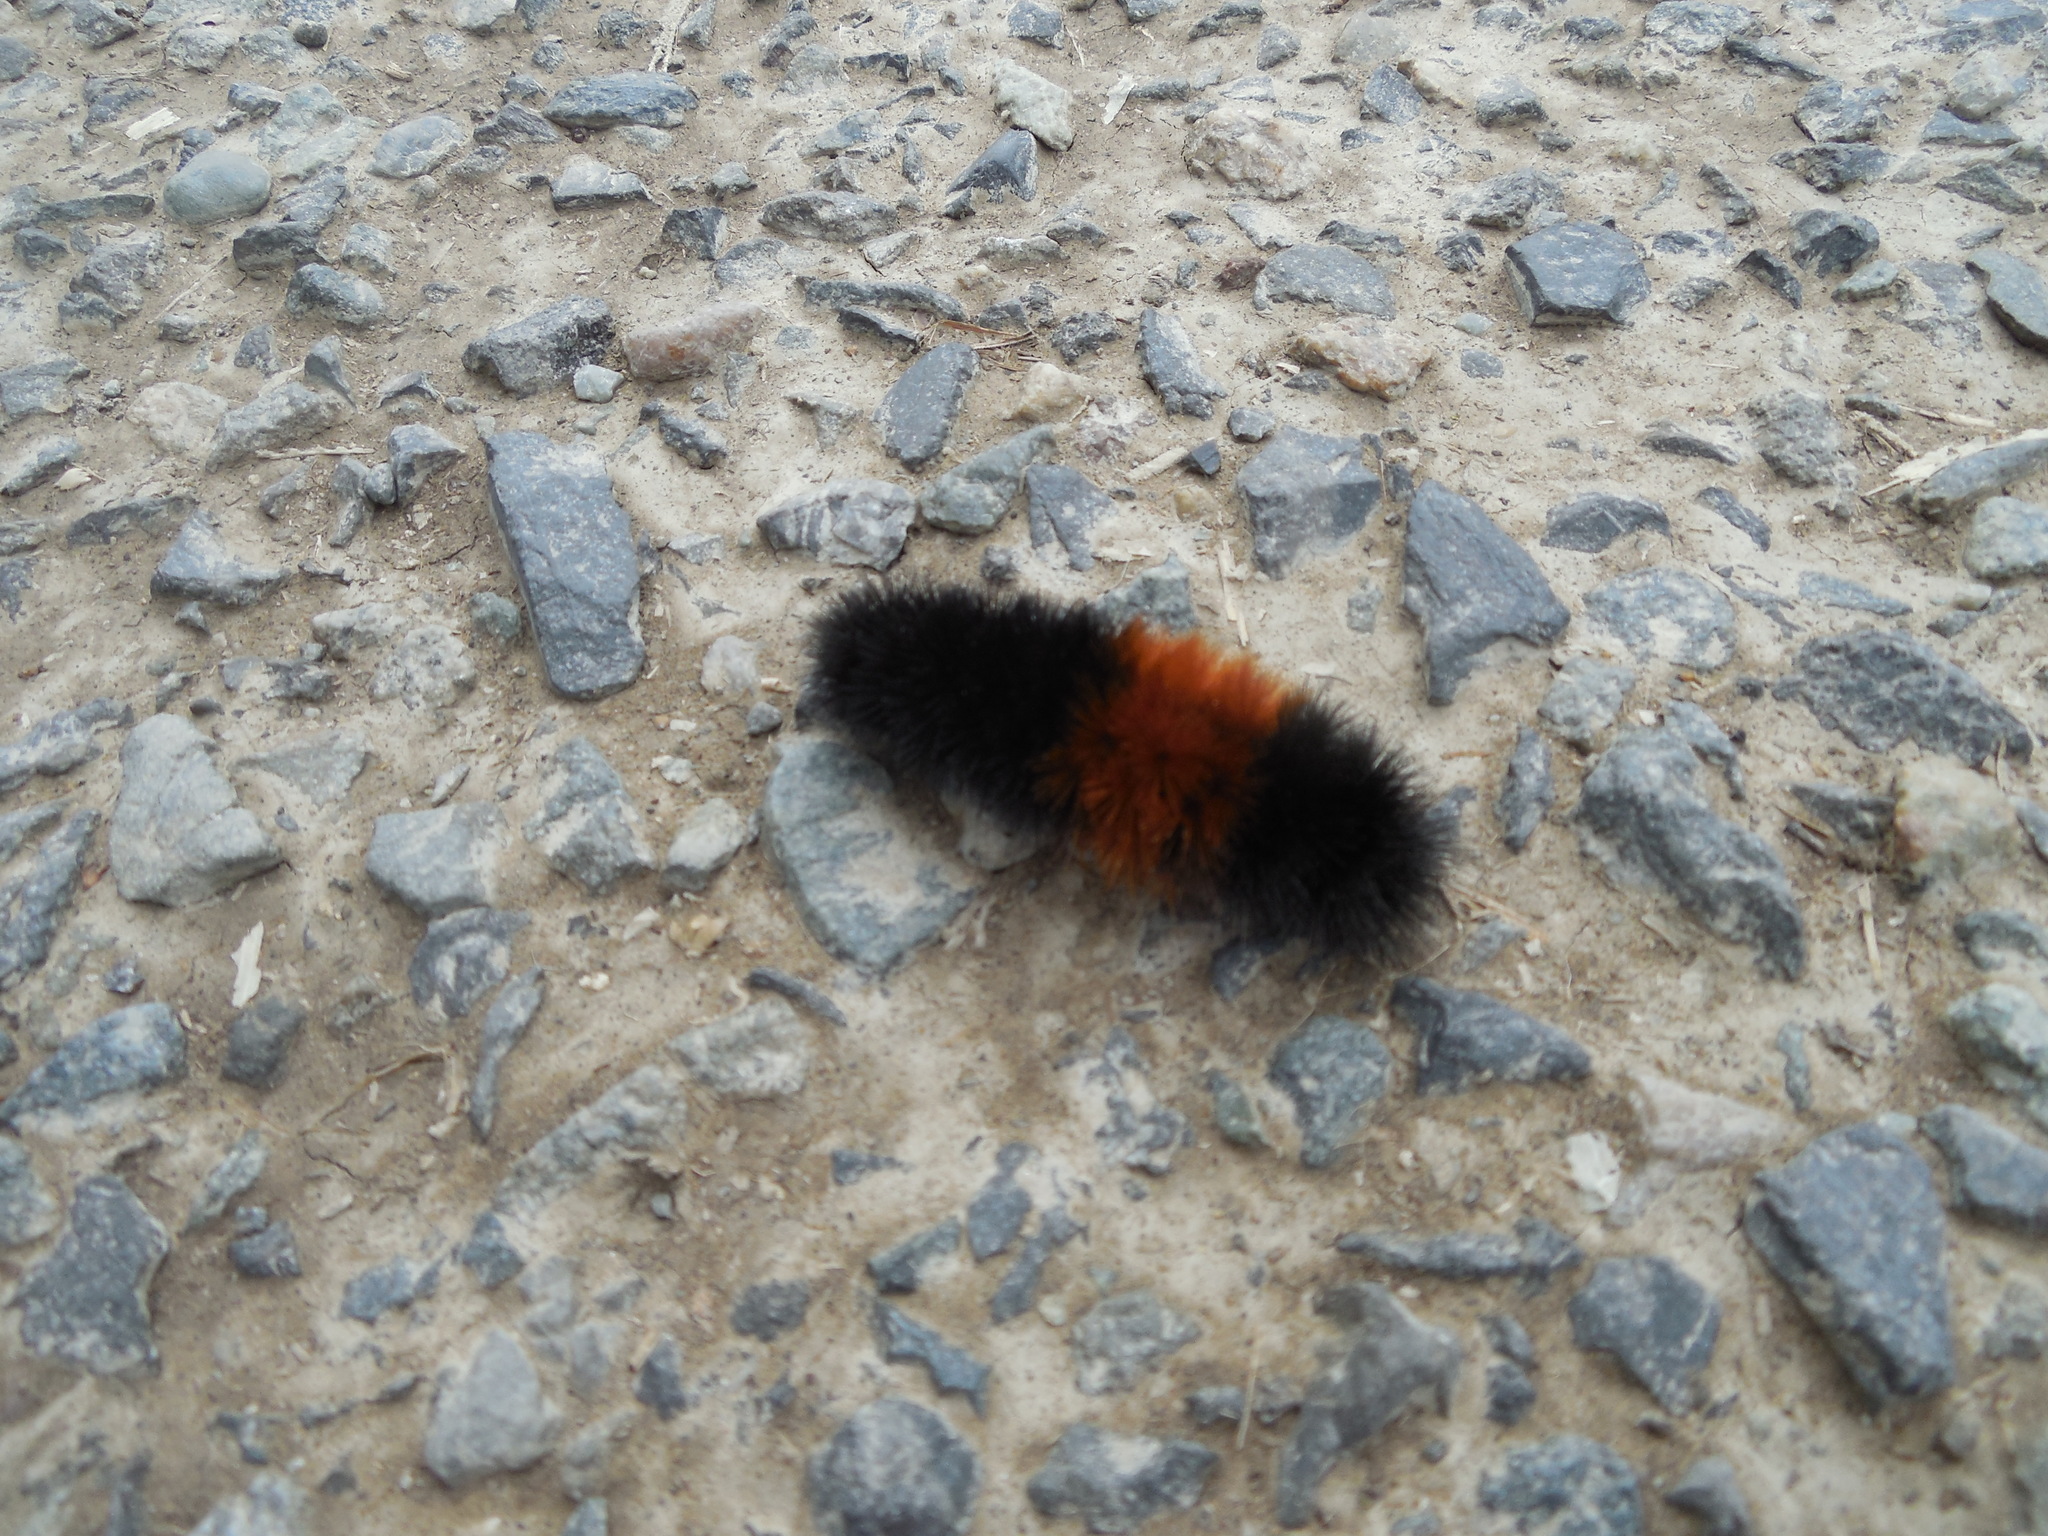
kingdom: Animalia
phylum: Arthropoda
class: Insecta
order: Lepidoptera
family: Erebidae
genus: Pyrrharctia
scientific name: Pyrrharctia isabella
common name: Isabella tiger moth
